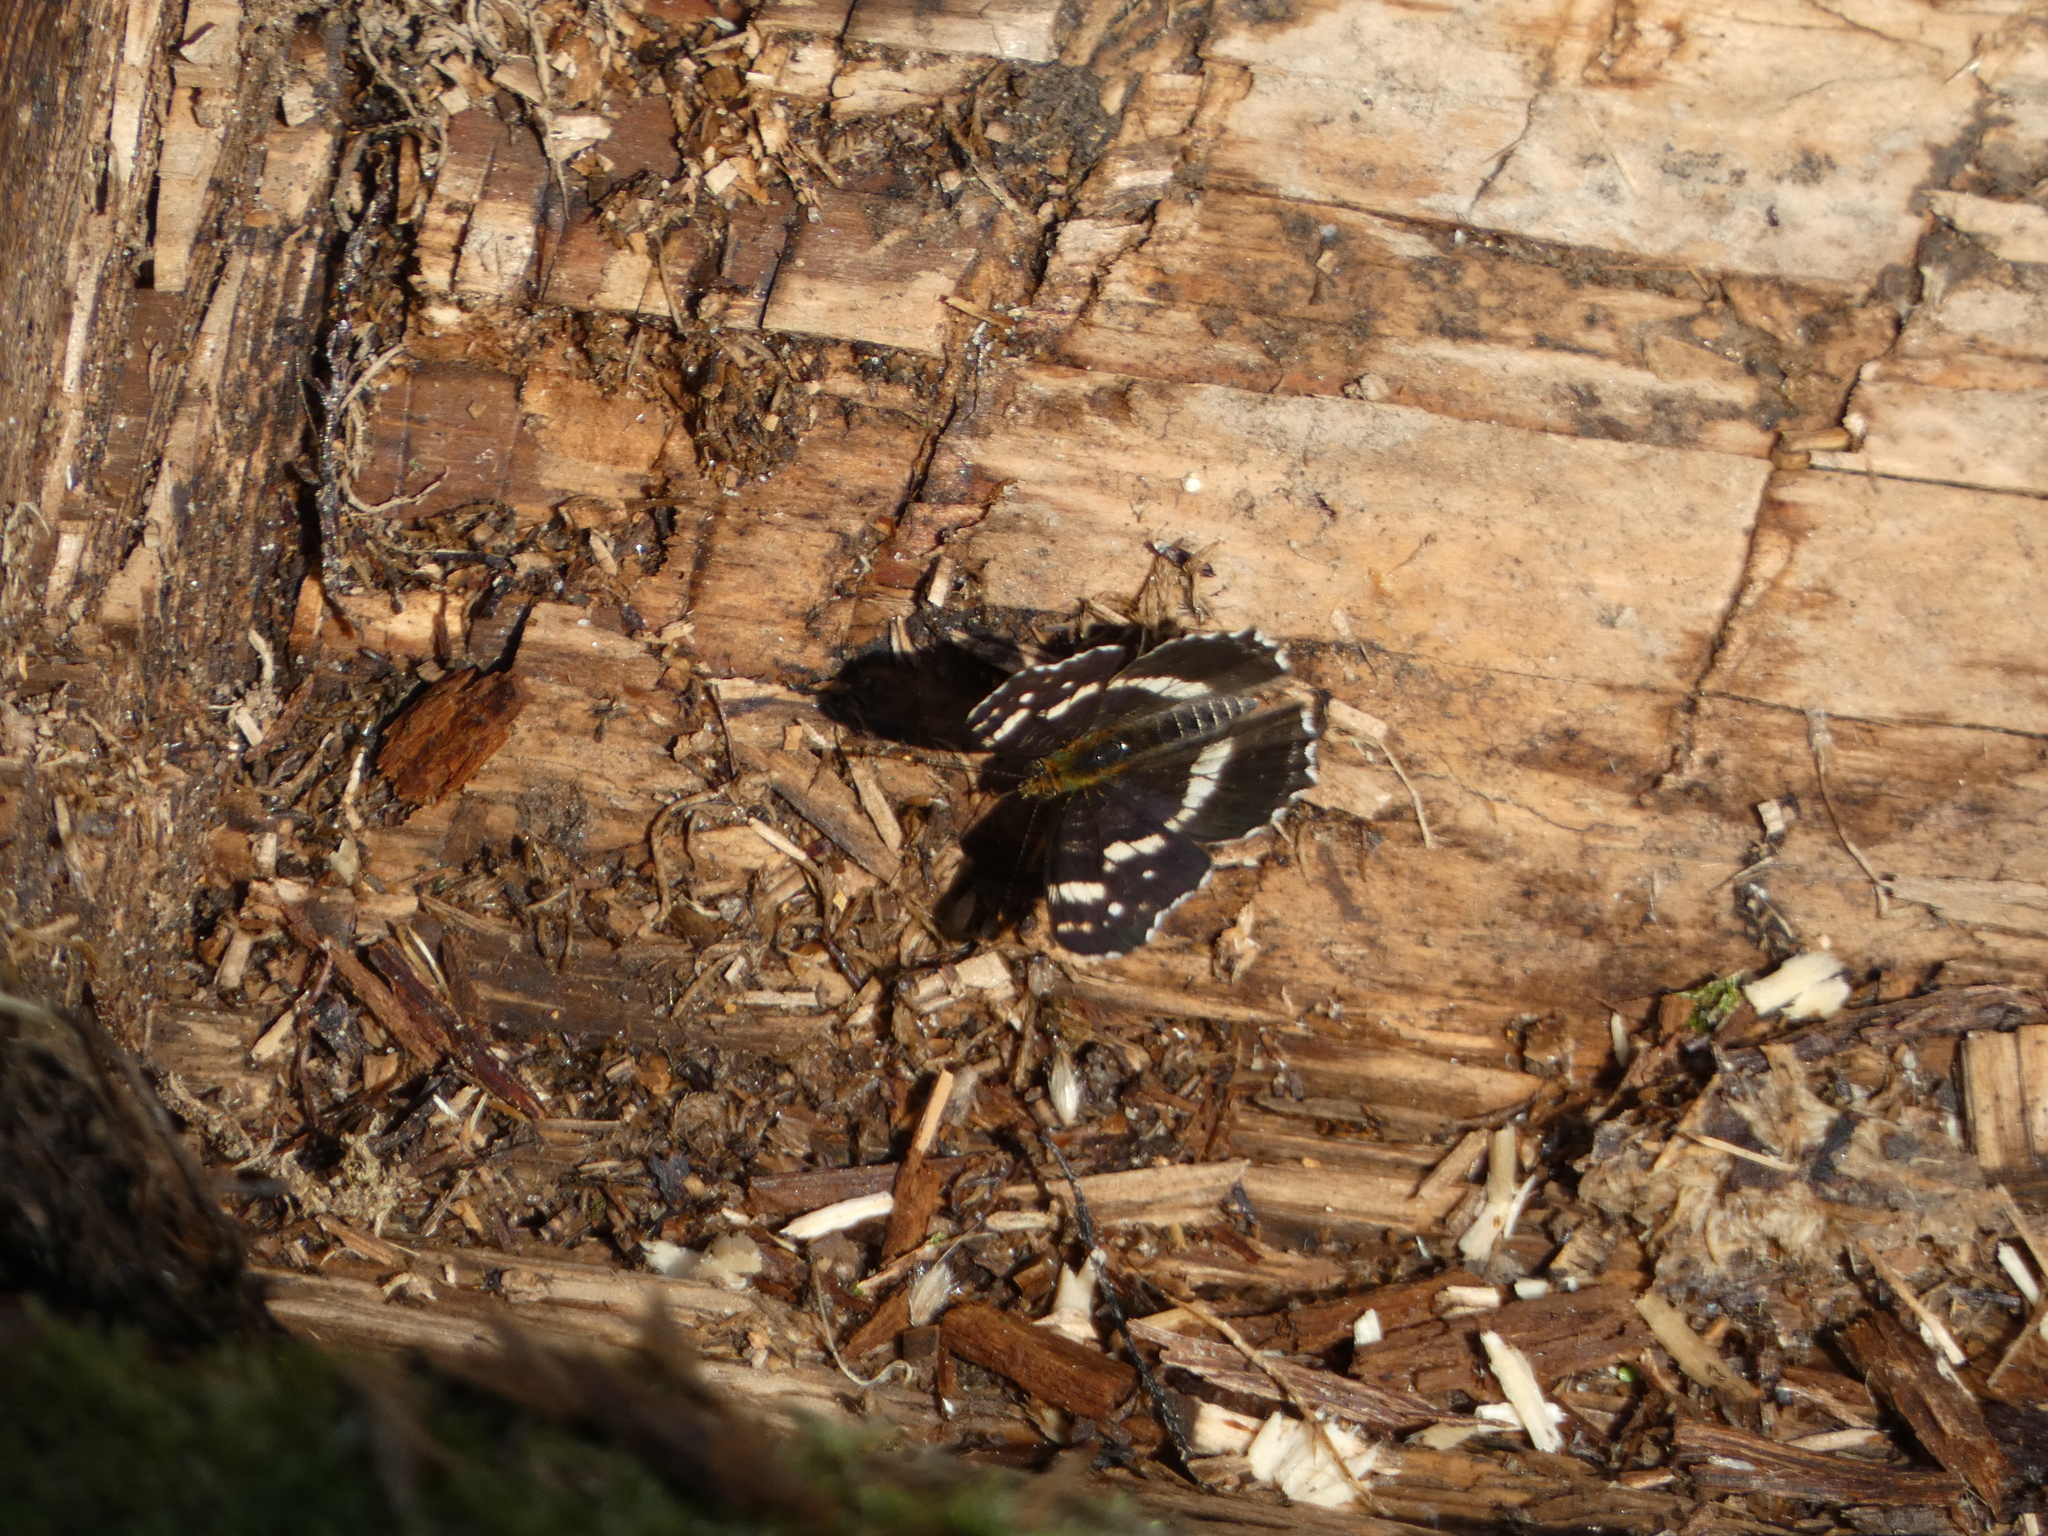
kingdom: Animalia
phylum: Arthropoda
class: Insecta
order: Lepidoptera
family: Nymphalidae
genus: Araschnia
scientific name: Araschnia levana
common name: Map butterfly
